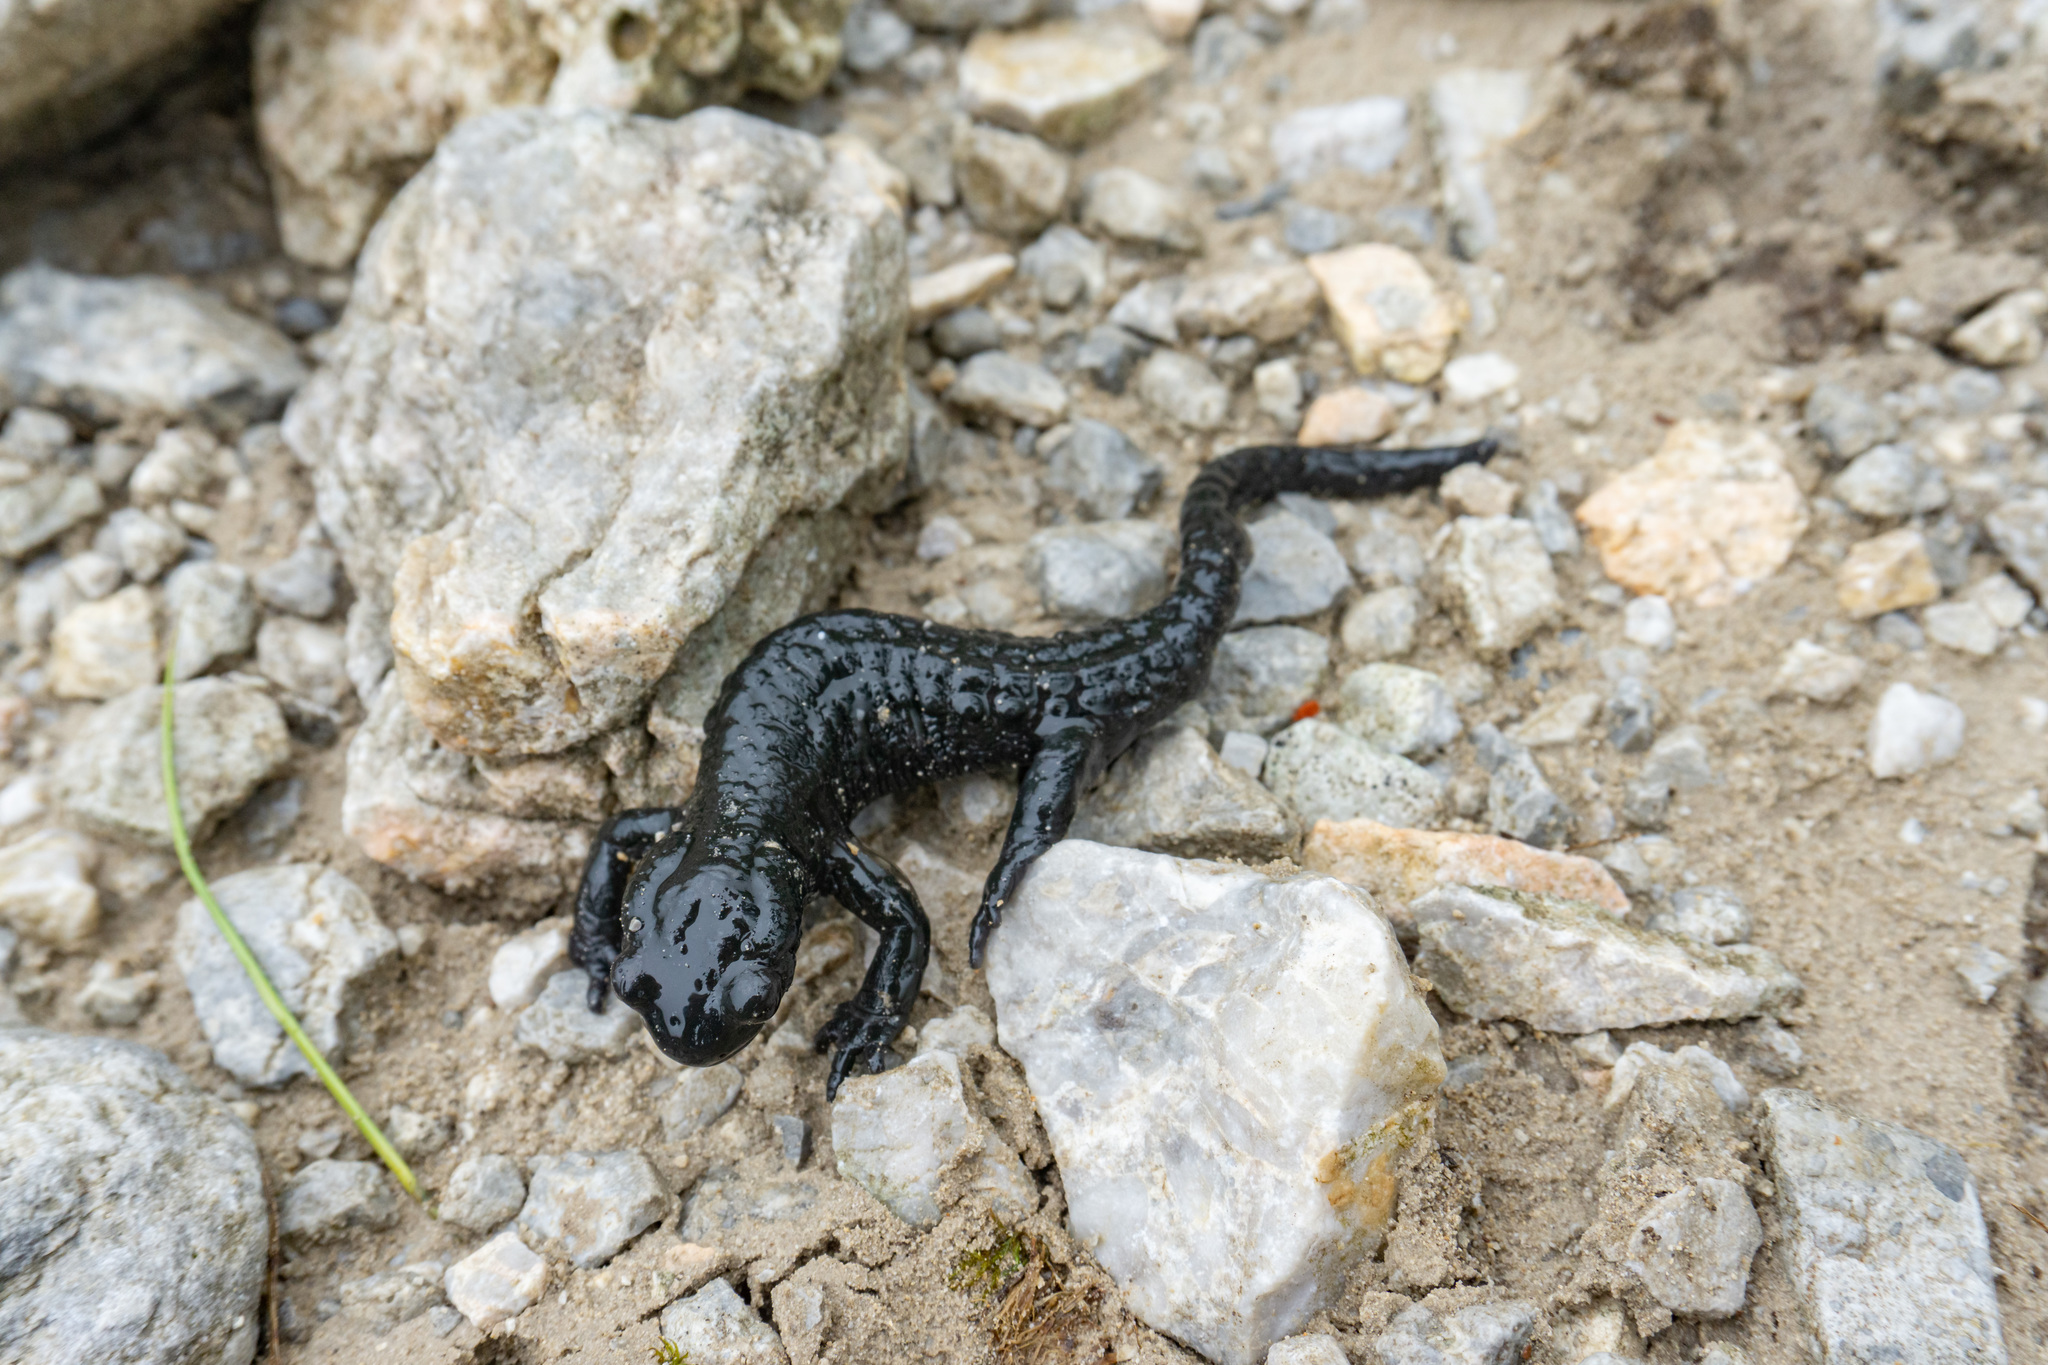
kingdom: Animalia
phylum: Chordata
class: Amphibia
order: Caudata
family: Salamandridae
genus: Salamandra
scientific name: Salamandra atra
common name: Alpine salamander
